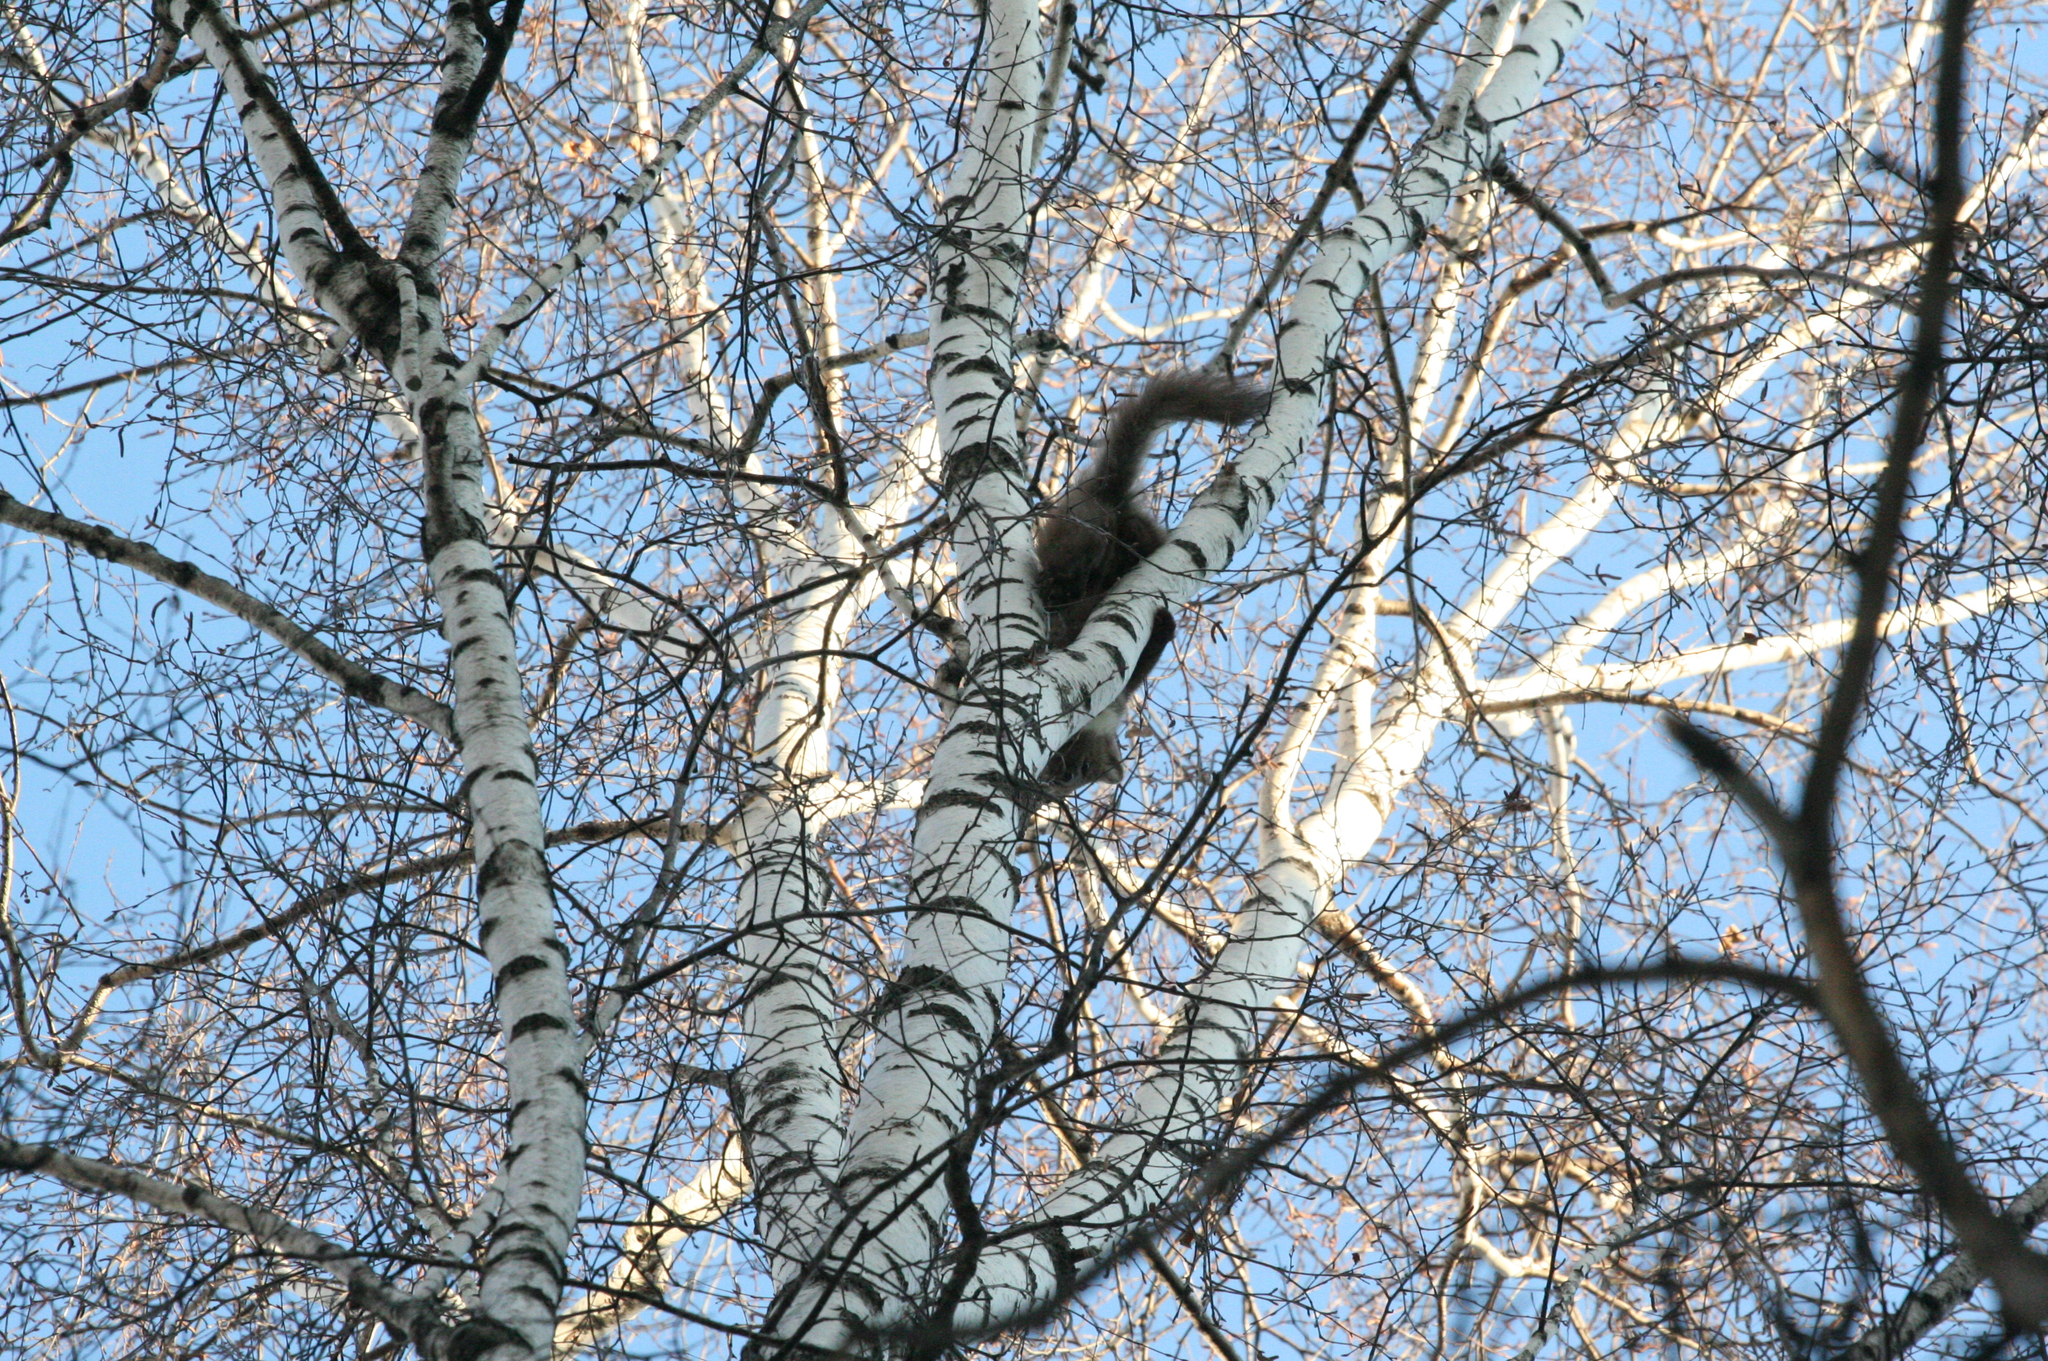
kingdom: Plantae
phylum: Tracheophyta
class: Magnoliopsida
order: Fagales
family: Betulaceae
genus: Betula
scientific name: Betula pendula
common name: Silver birch
